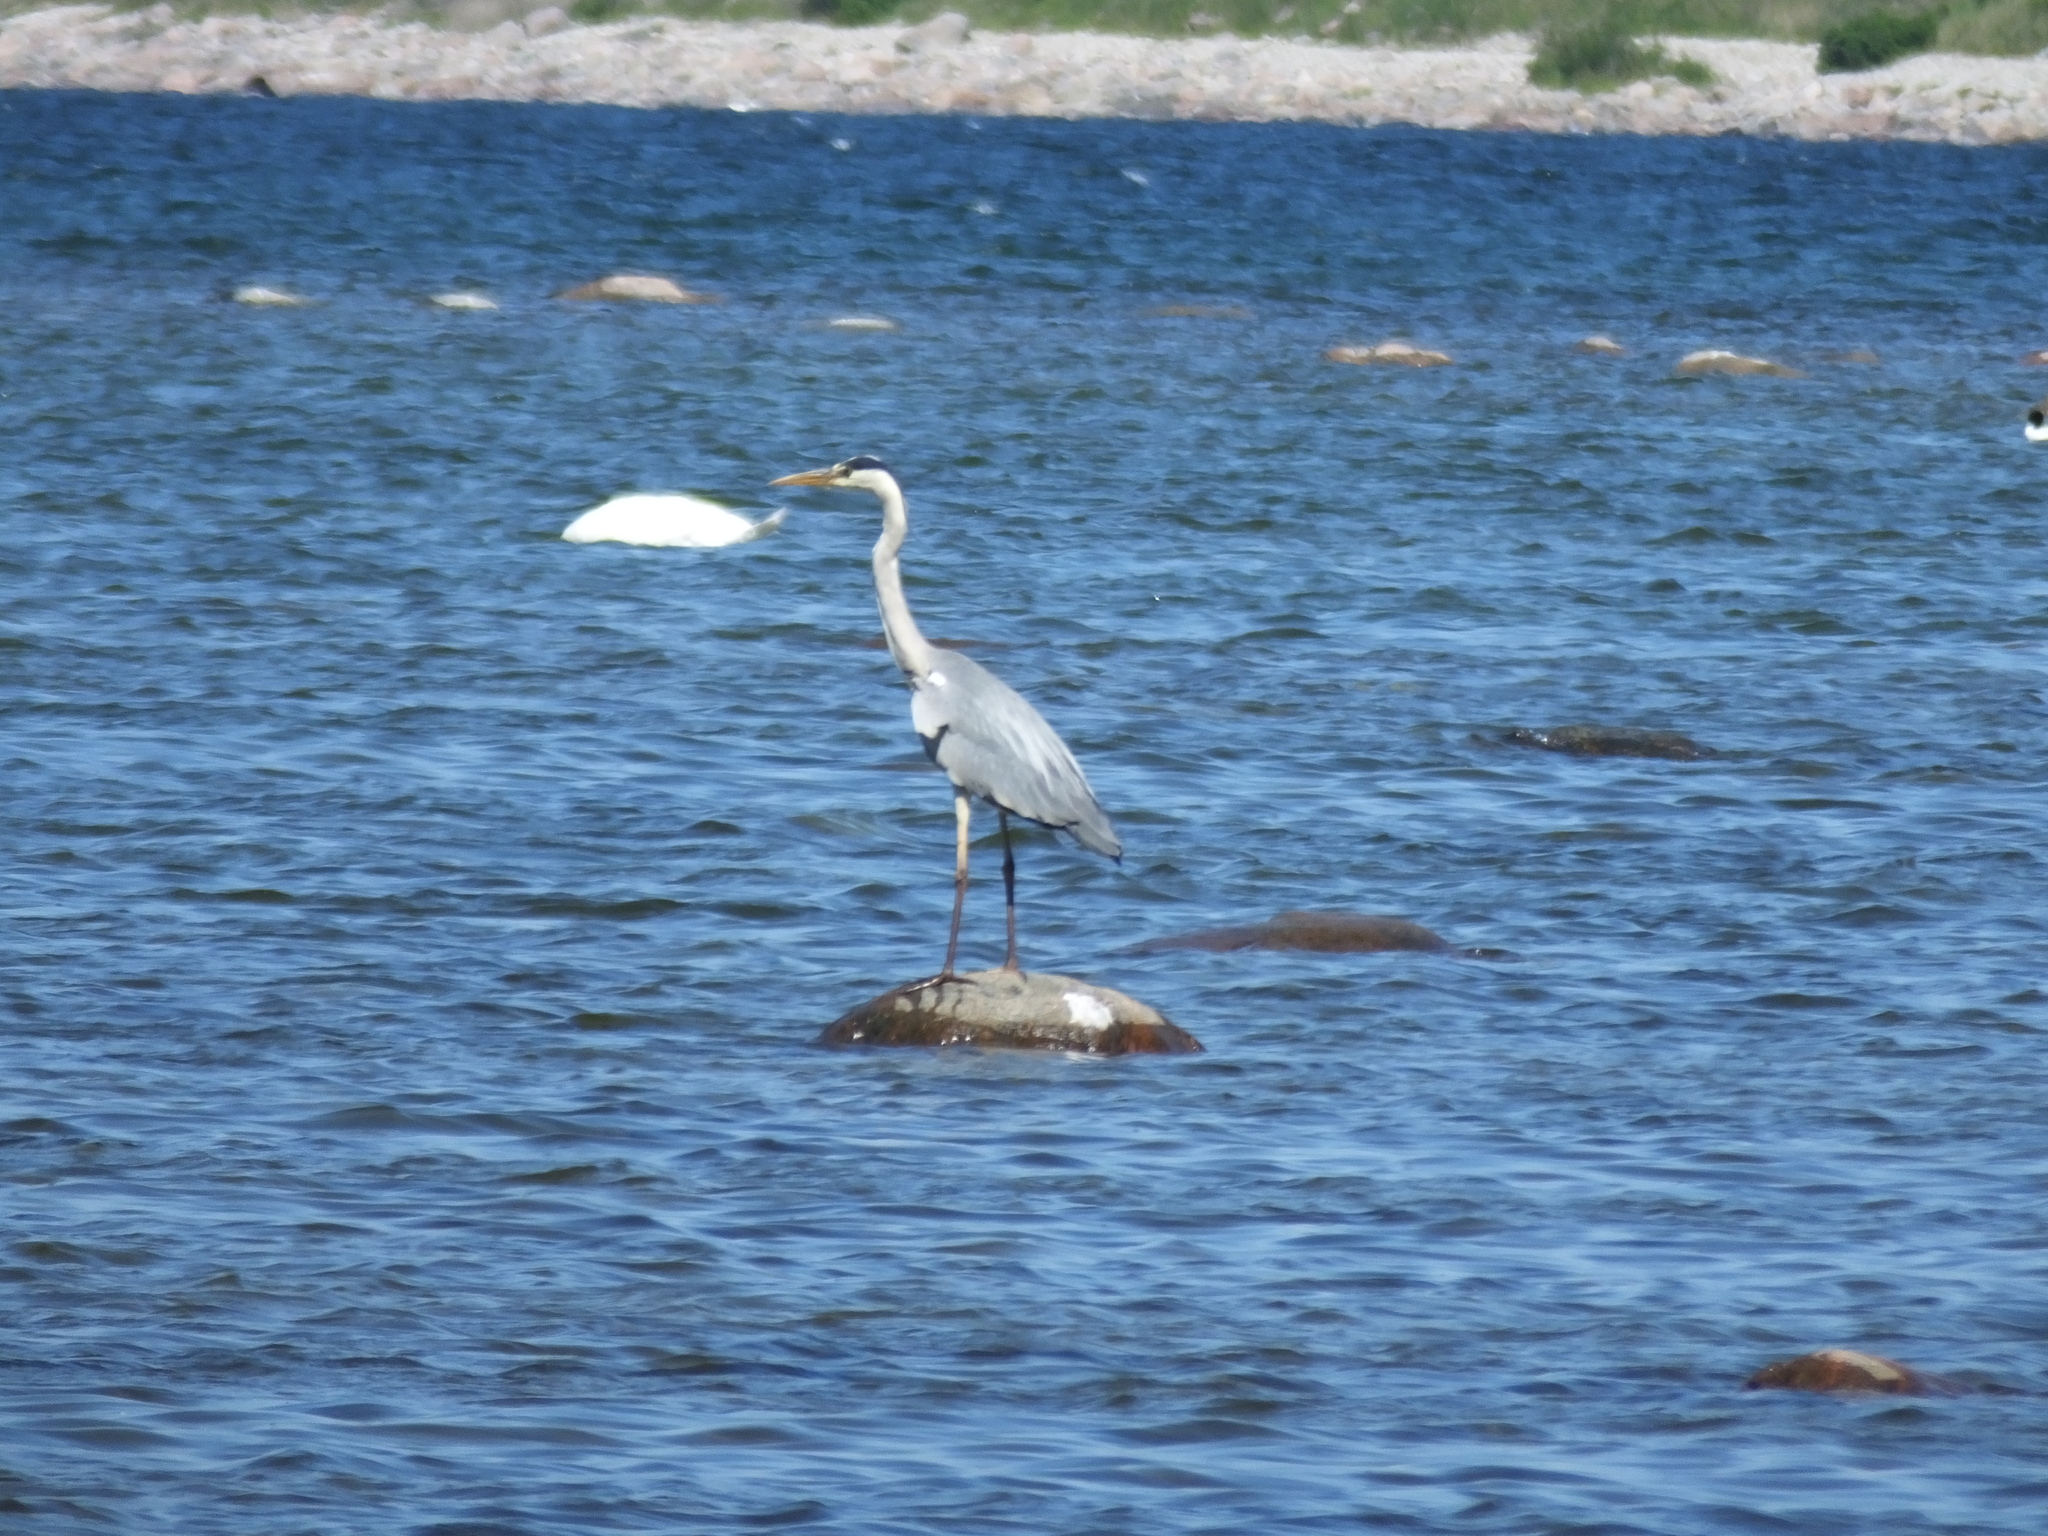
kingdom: Animalia
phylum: Chordata
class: Aves
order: Pelecaniformes
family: Ardeidae
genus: Ardea
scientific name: Ardea cinerea
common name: Grey heron
